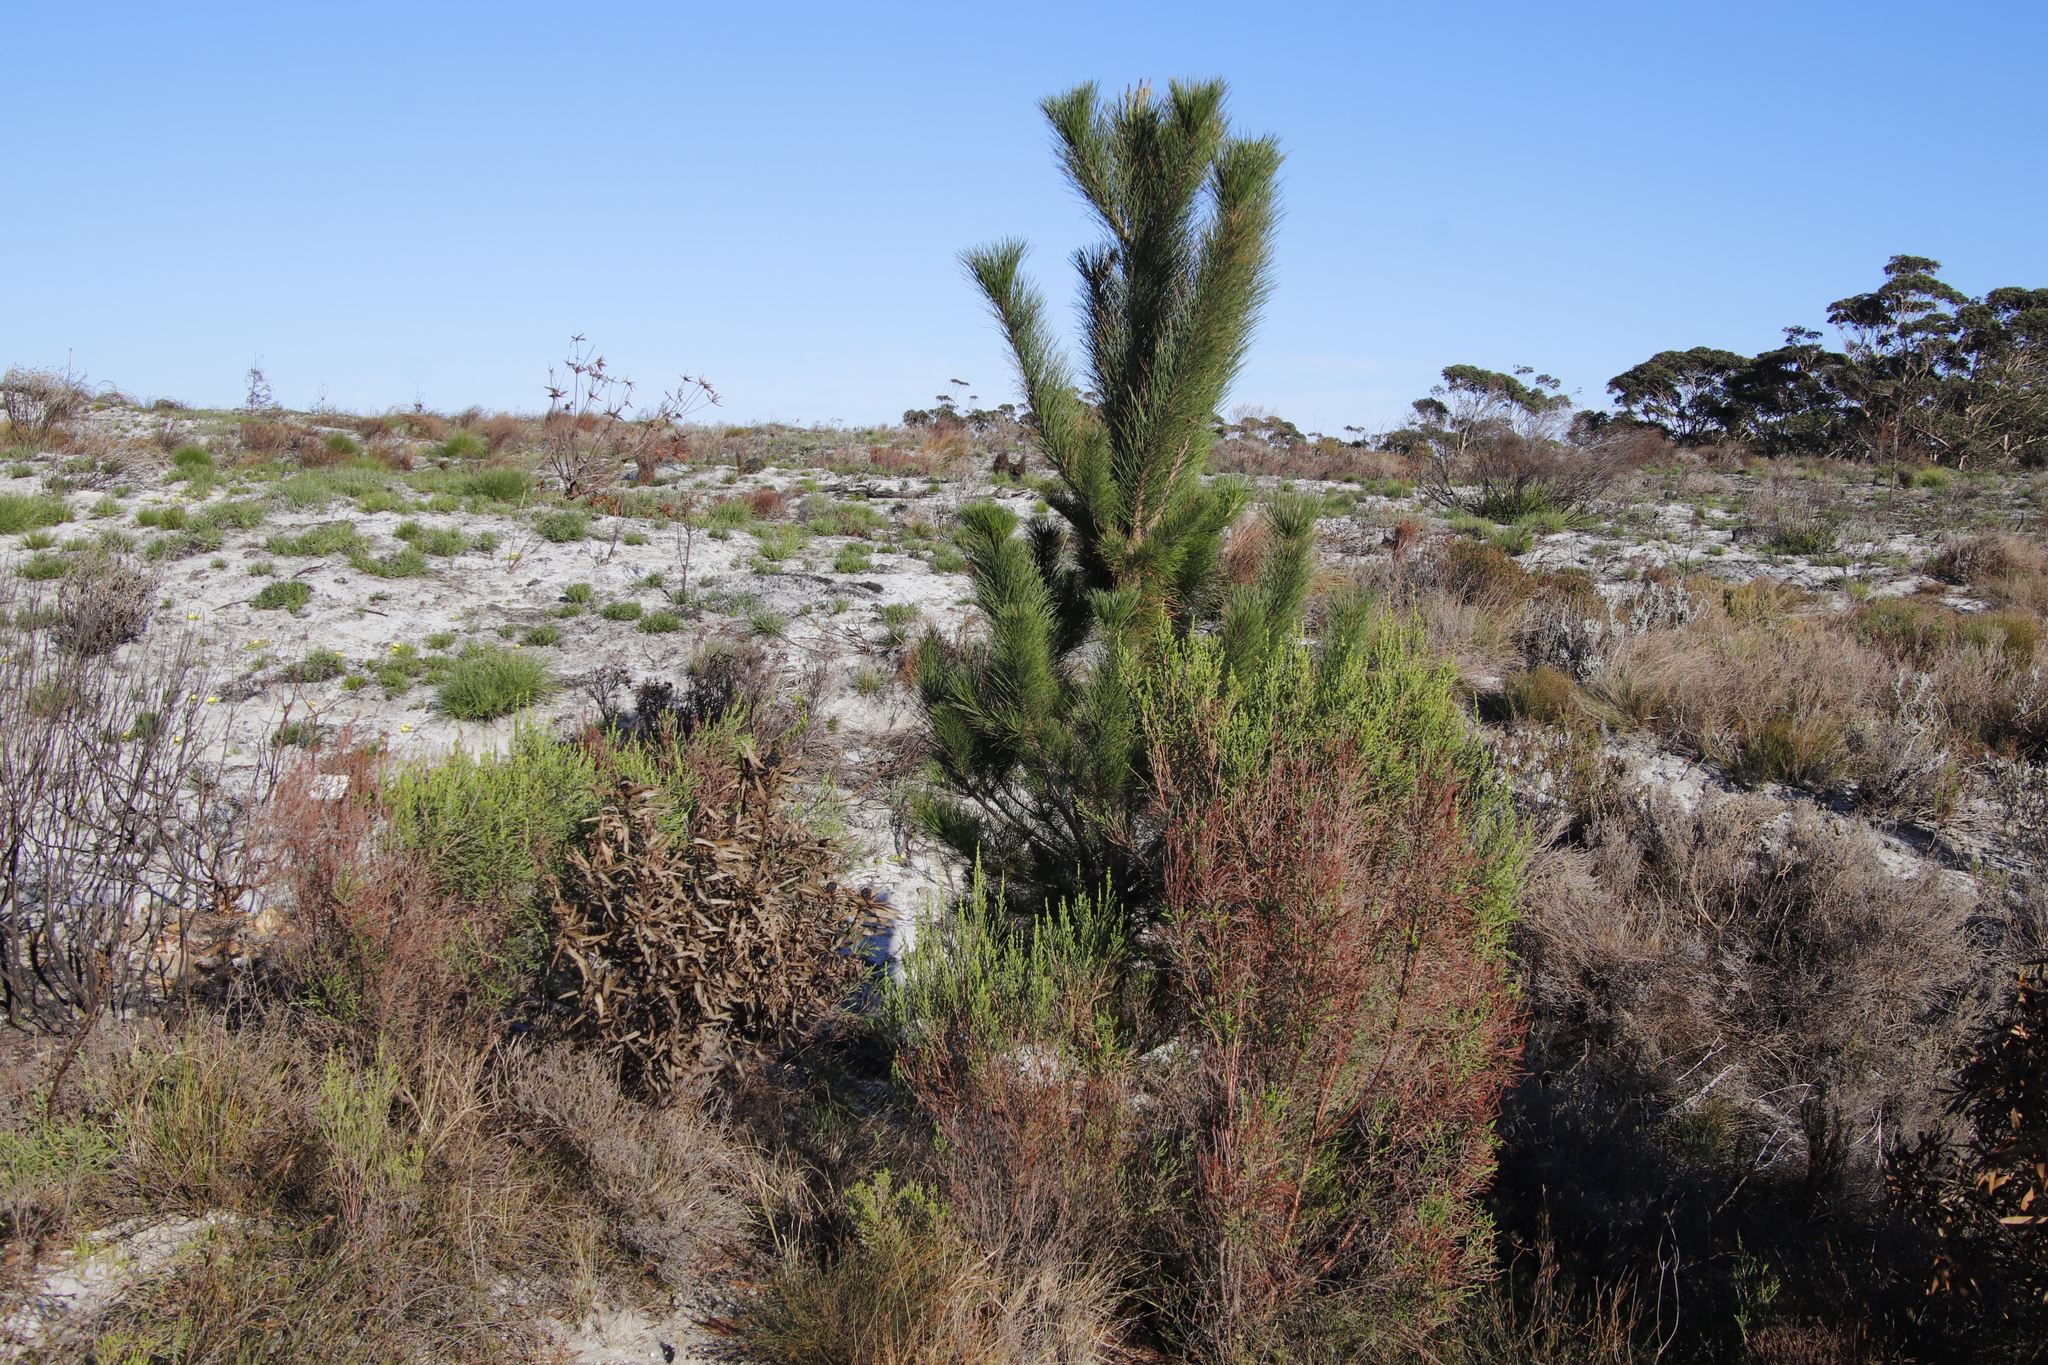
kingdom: Plantae
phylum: Tracheophyta
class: Pinopsida
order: Pinales
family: Pinaceae
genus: Pinus
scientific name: Pinus radiata
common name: Monterey pine
